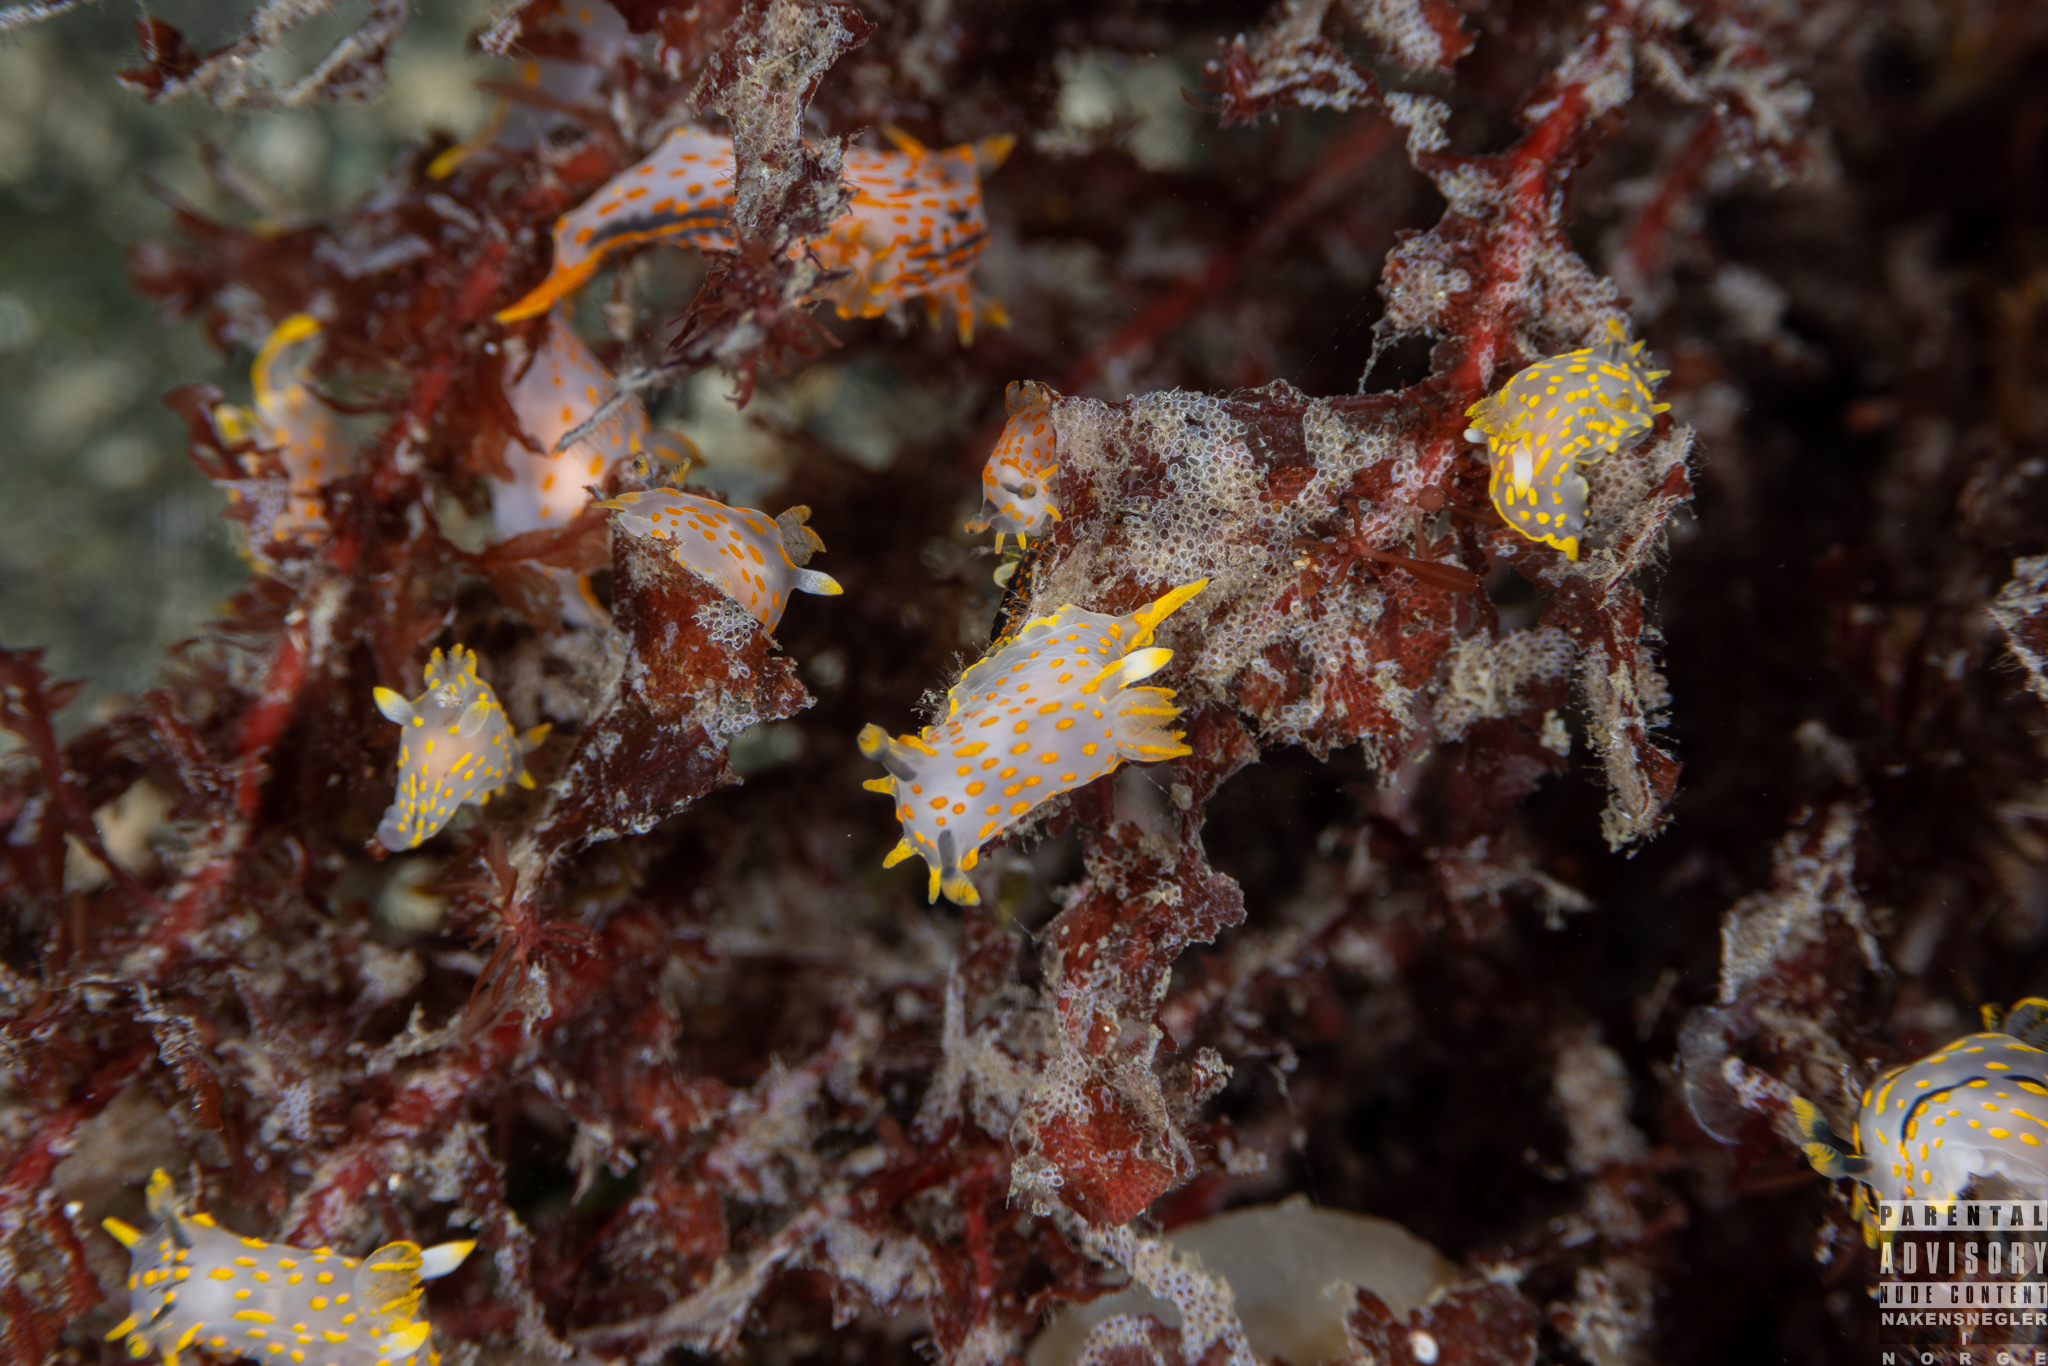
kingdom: Animalia
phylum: Mollusca
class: Gastropoda
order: Nudibranchia
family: Polyceridae
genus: Polycera
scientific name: Polycera quadrilineata
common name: Four-striped polycera
